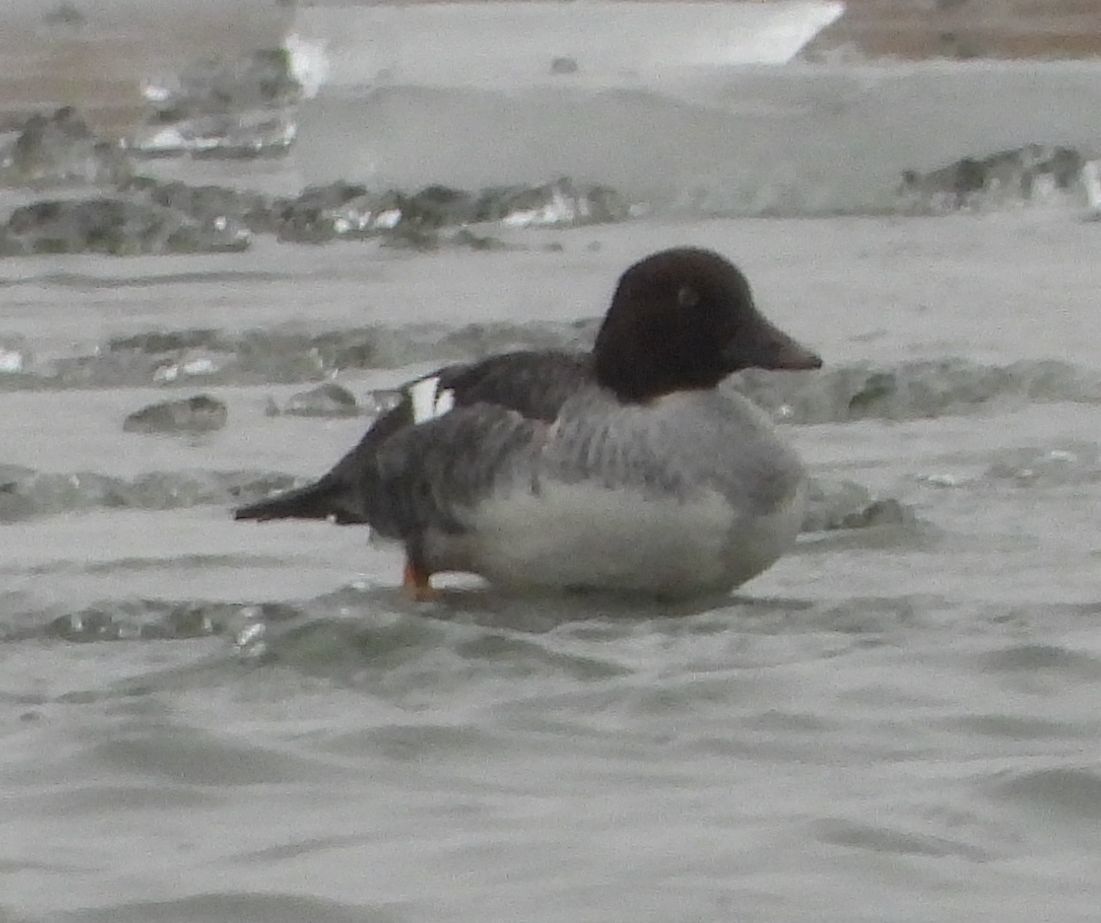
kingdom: Animalia
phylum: Chordata
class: Aves
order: Anseriformes
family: Anatidae
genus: Bucephala
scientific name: Bucephala clangula
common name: Common goldeneye
